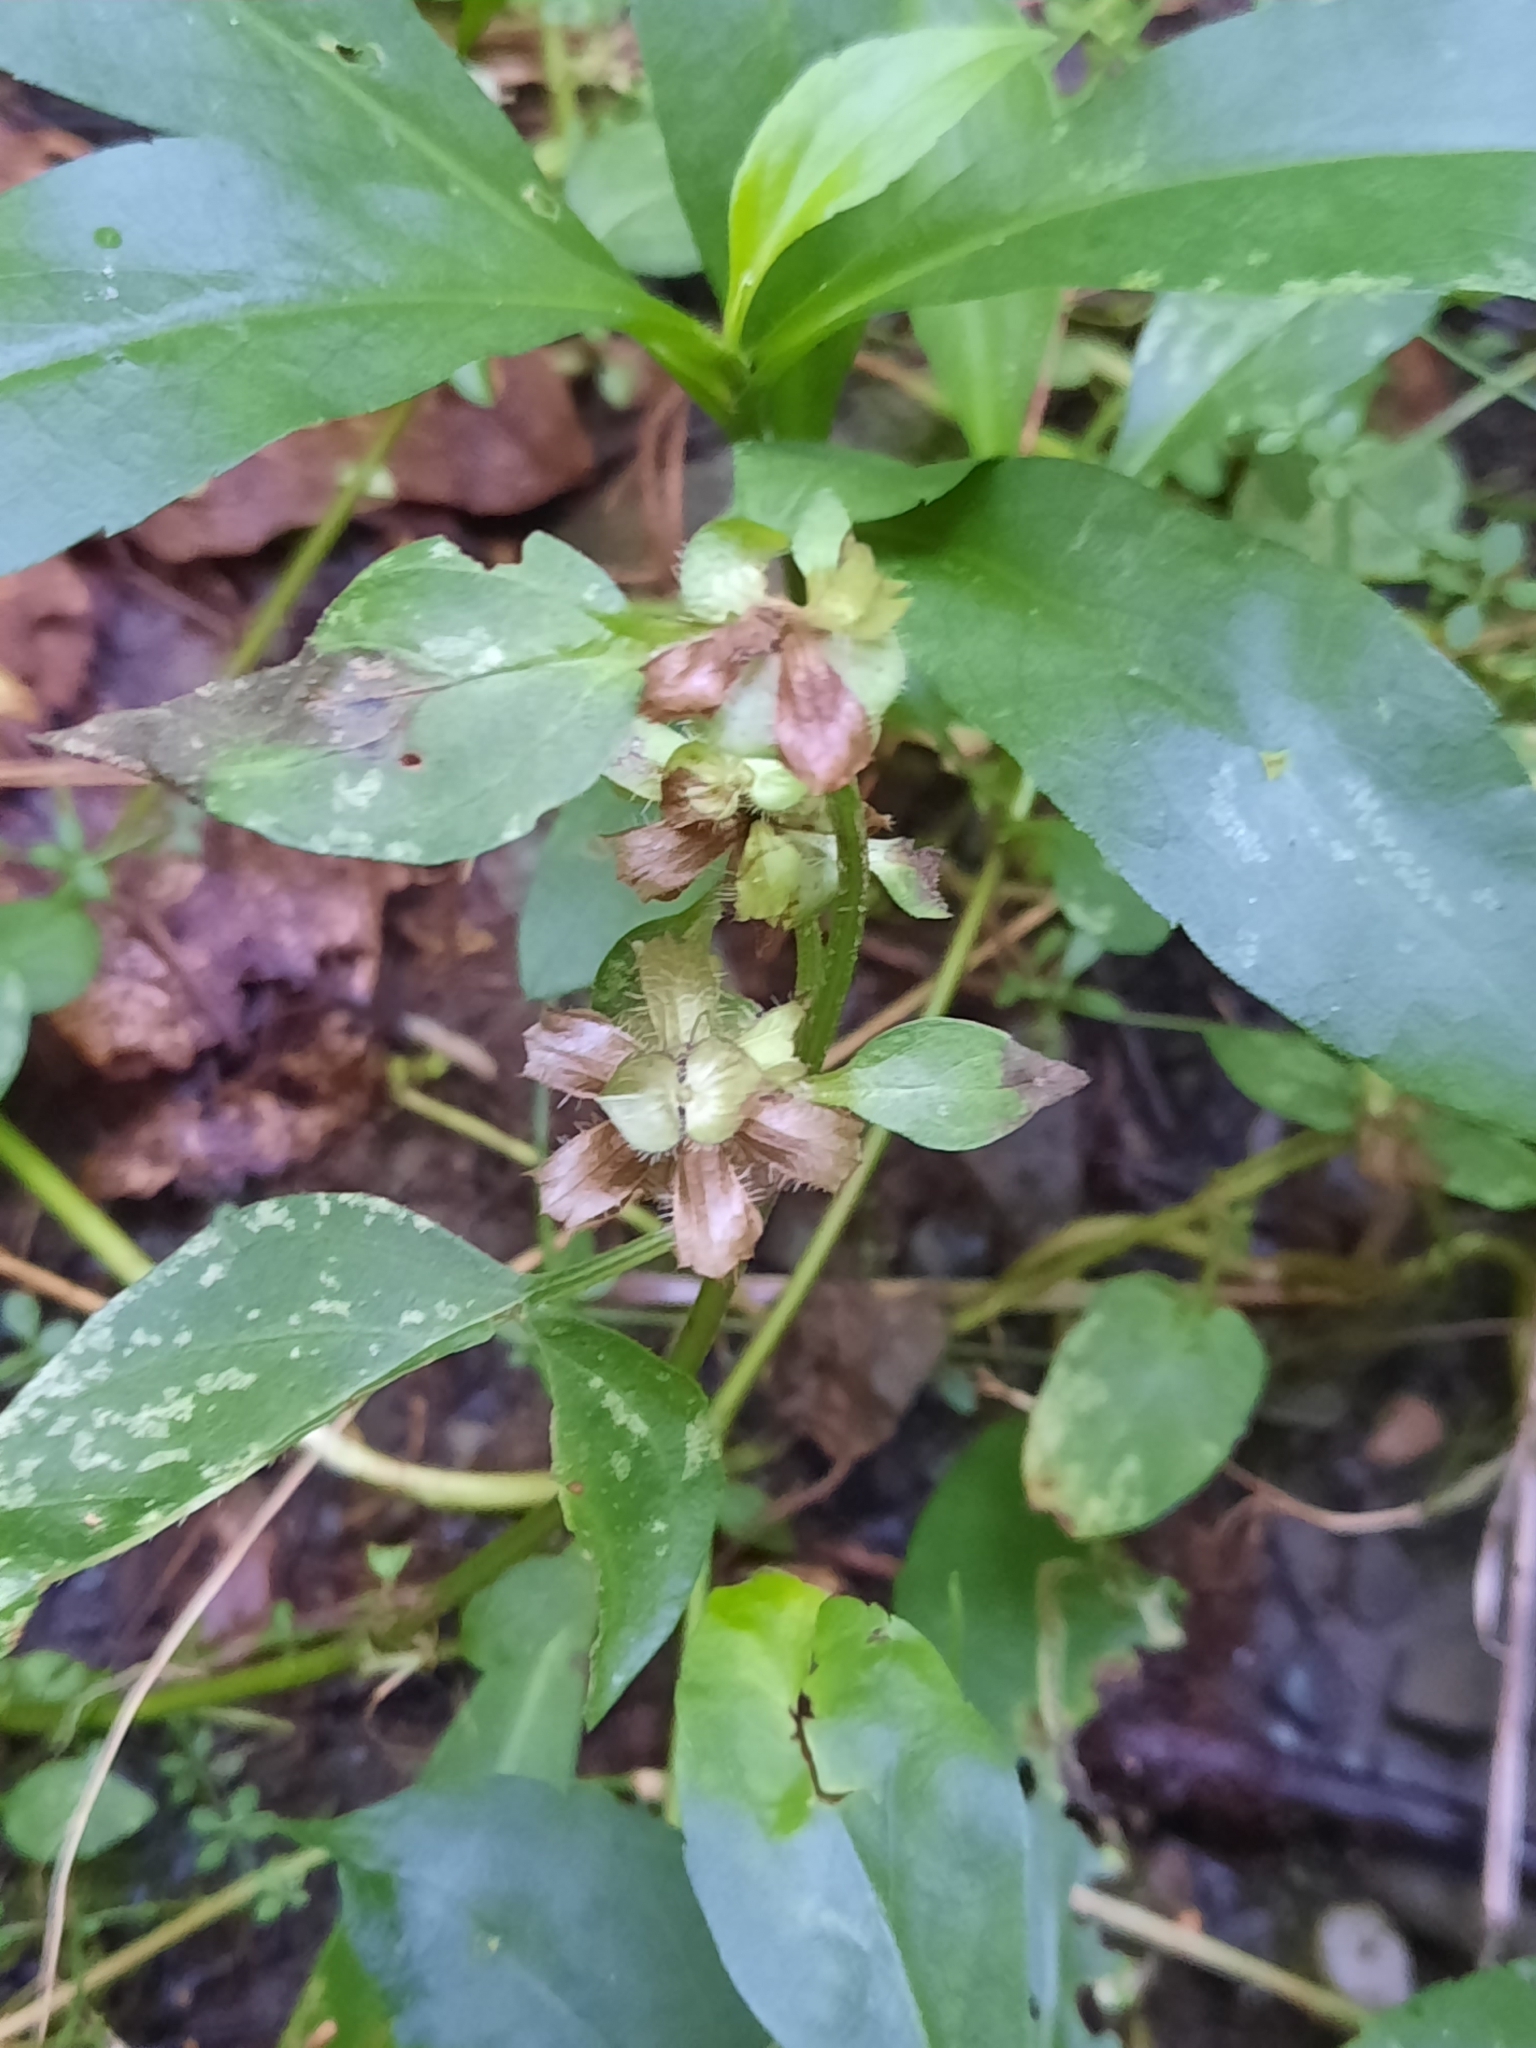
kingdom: Plantae
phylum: Tracheophyta
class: Magnoliopsida
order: Lamiales
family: Lamiaceae
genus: Prunella
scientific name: Prunella vulgaris
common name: Heal-all
